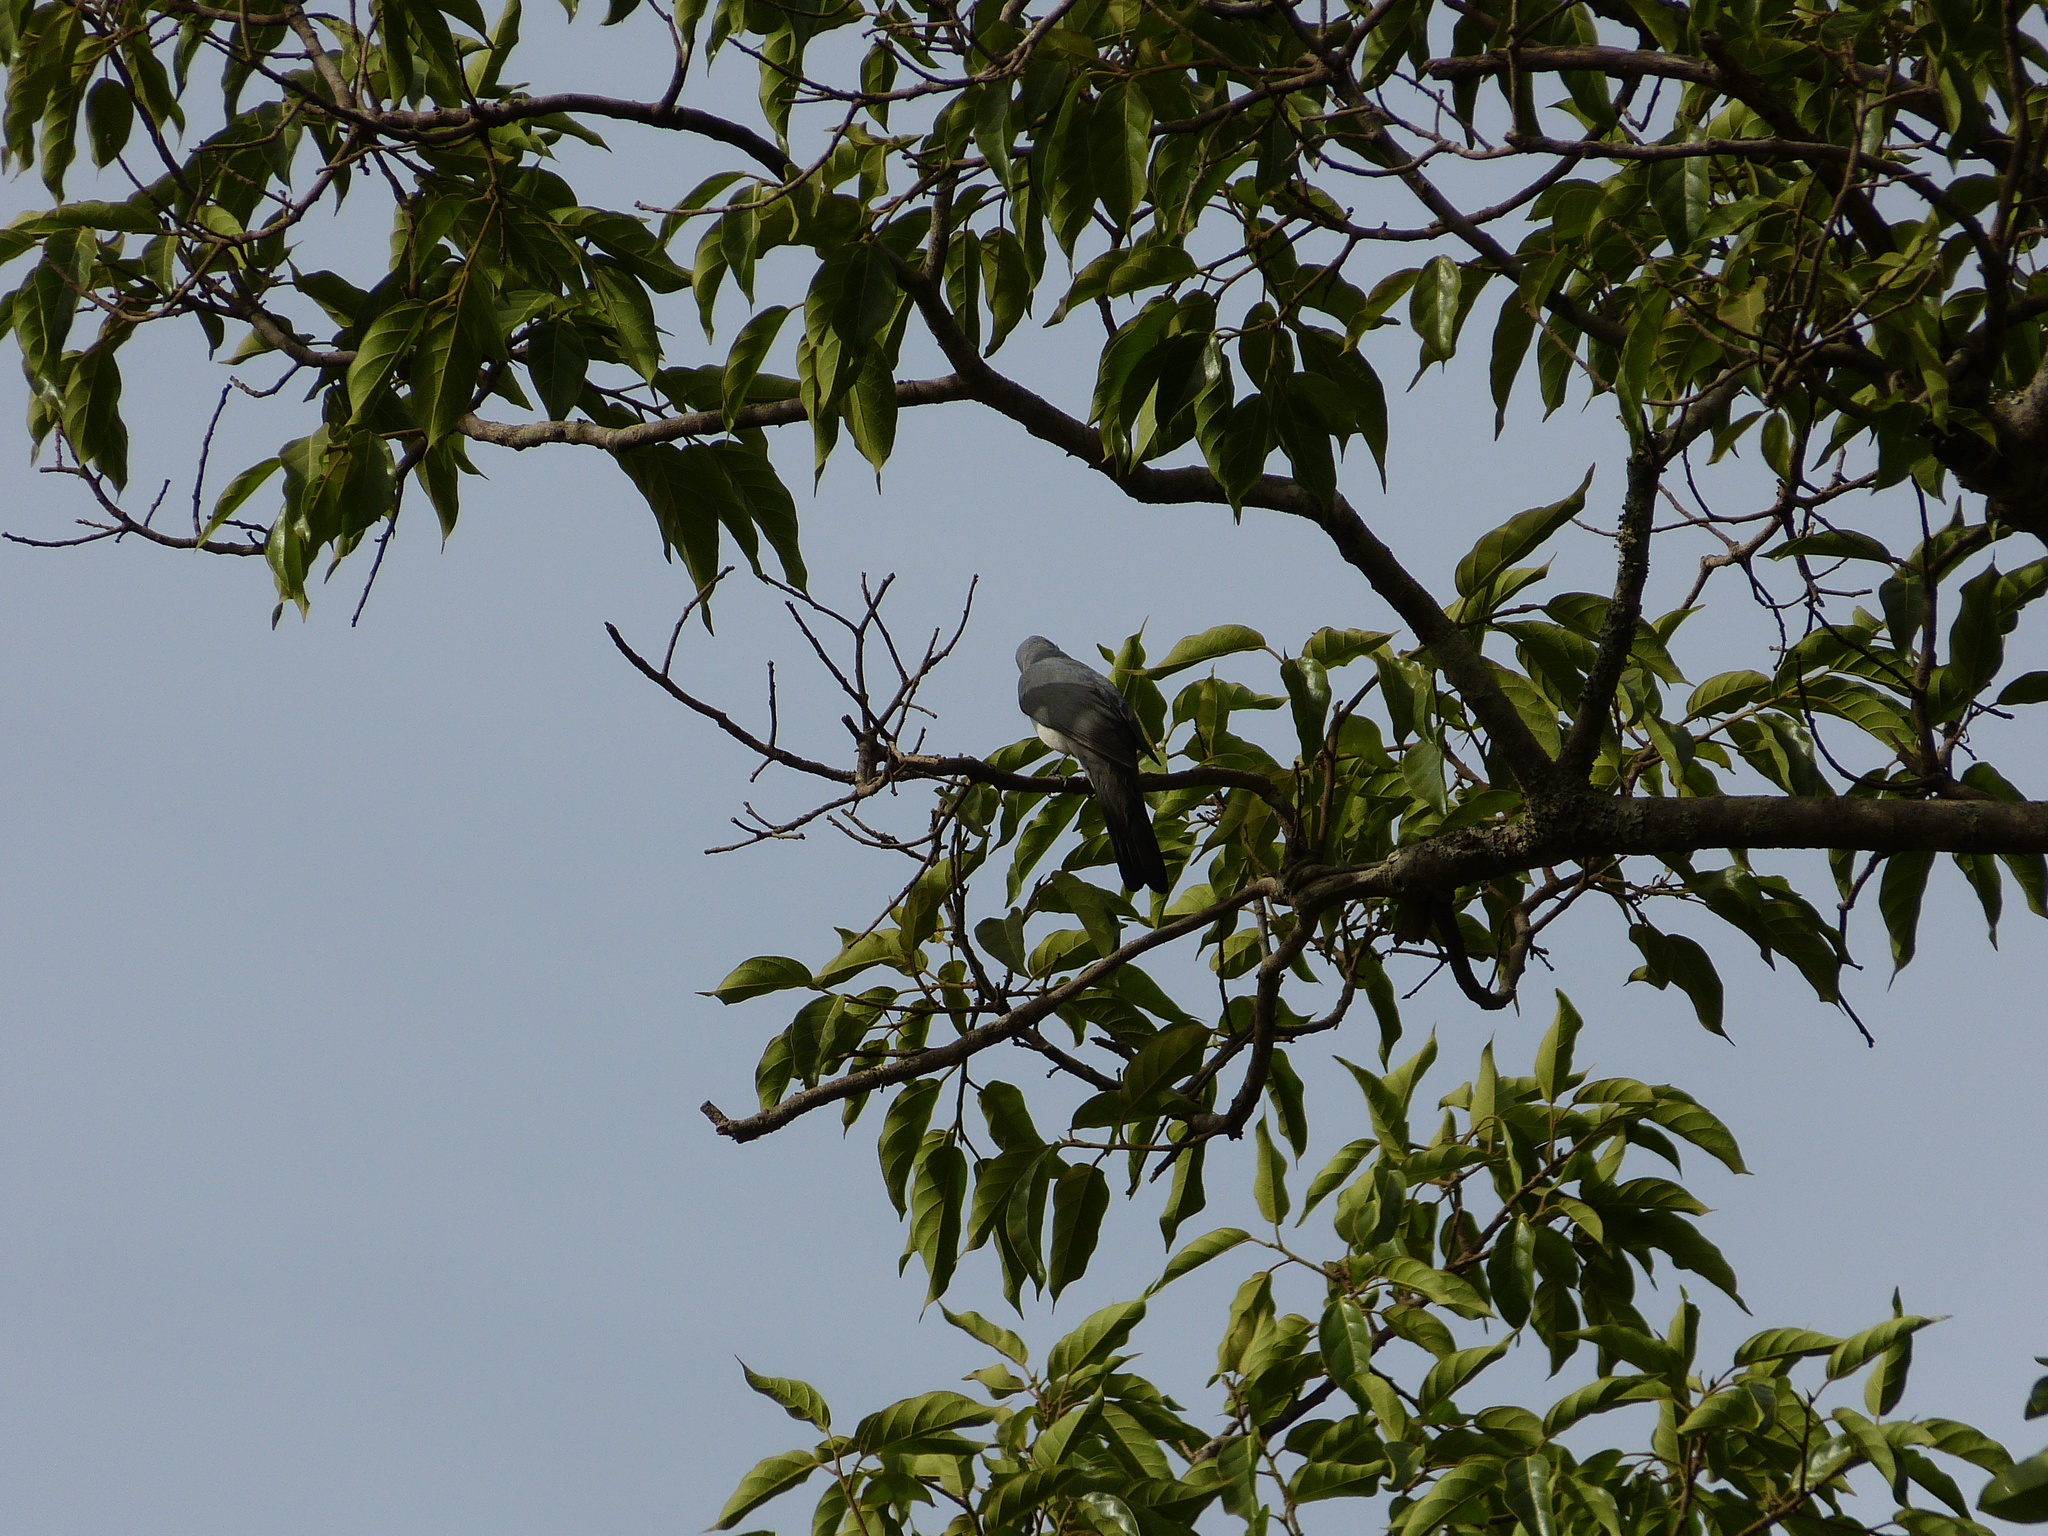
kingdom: Animalia
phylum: Chordata
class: Aves
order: Passeriformes
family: Campephagidae
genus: Coracina
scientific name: Coracina pectoralis
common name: White-breasted cuckooshrike
